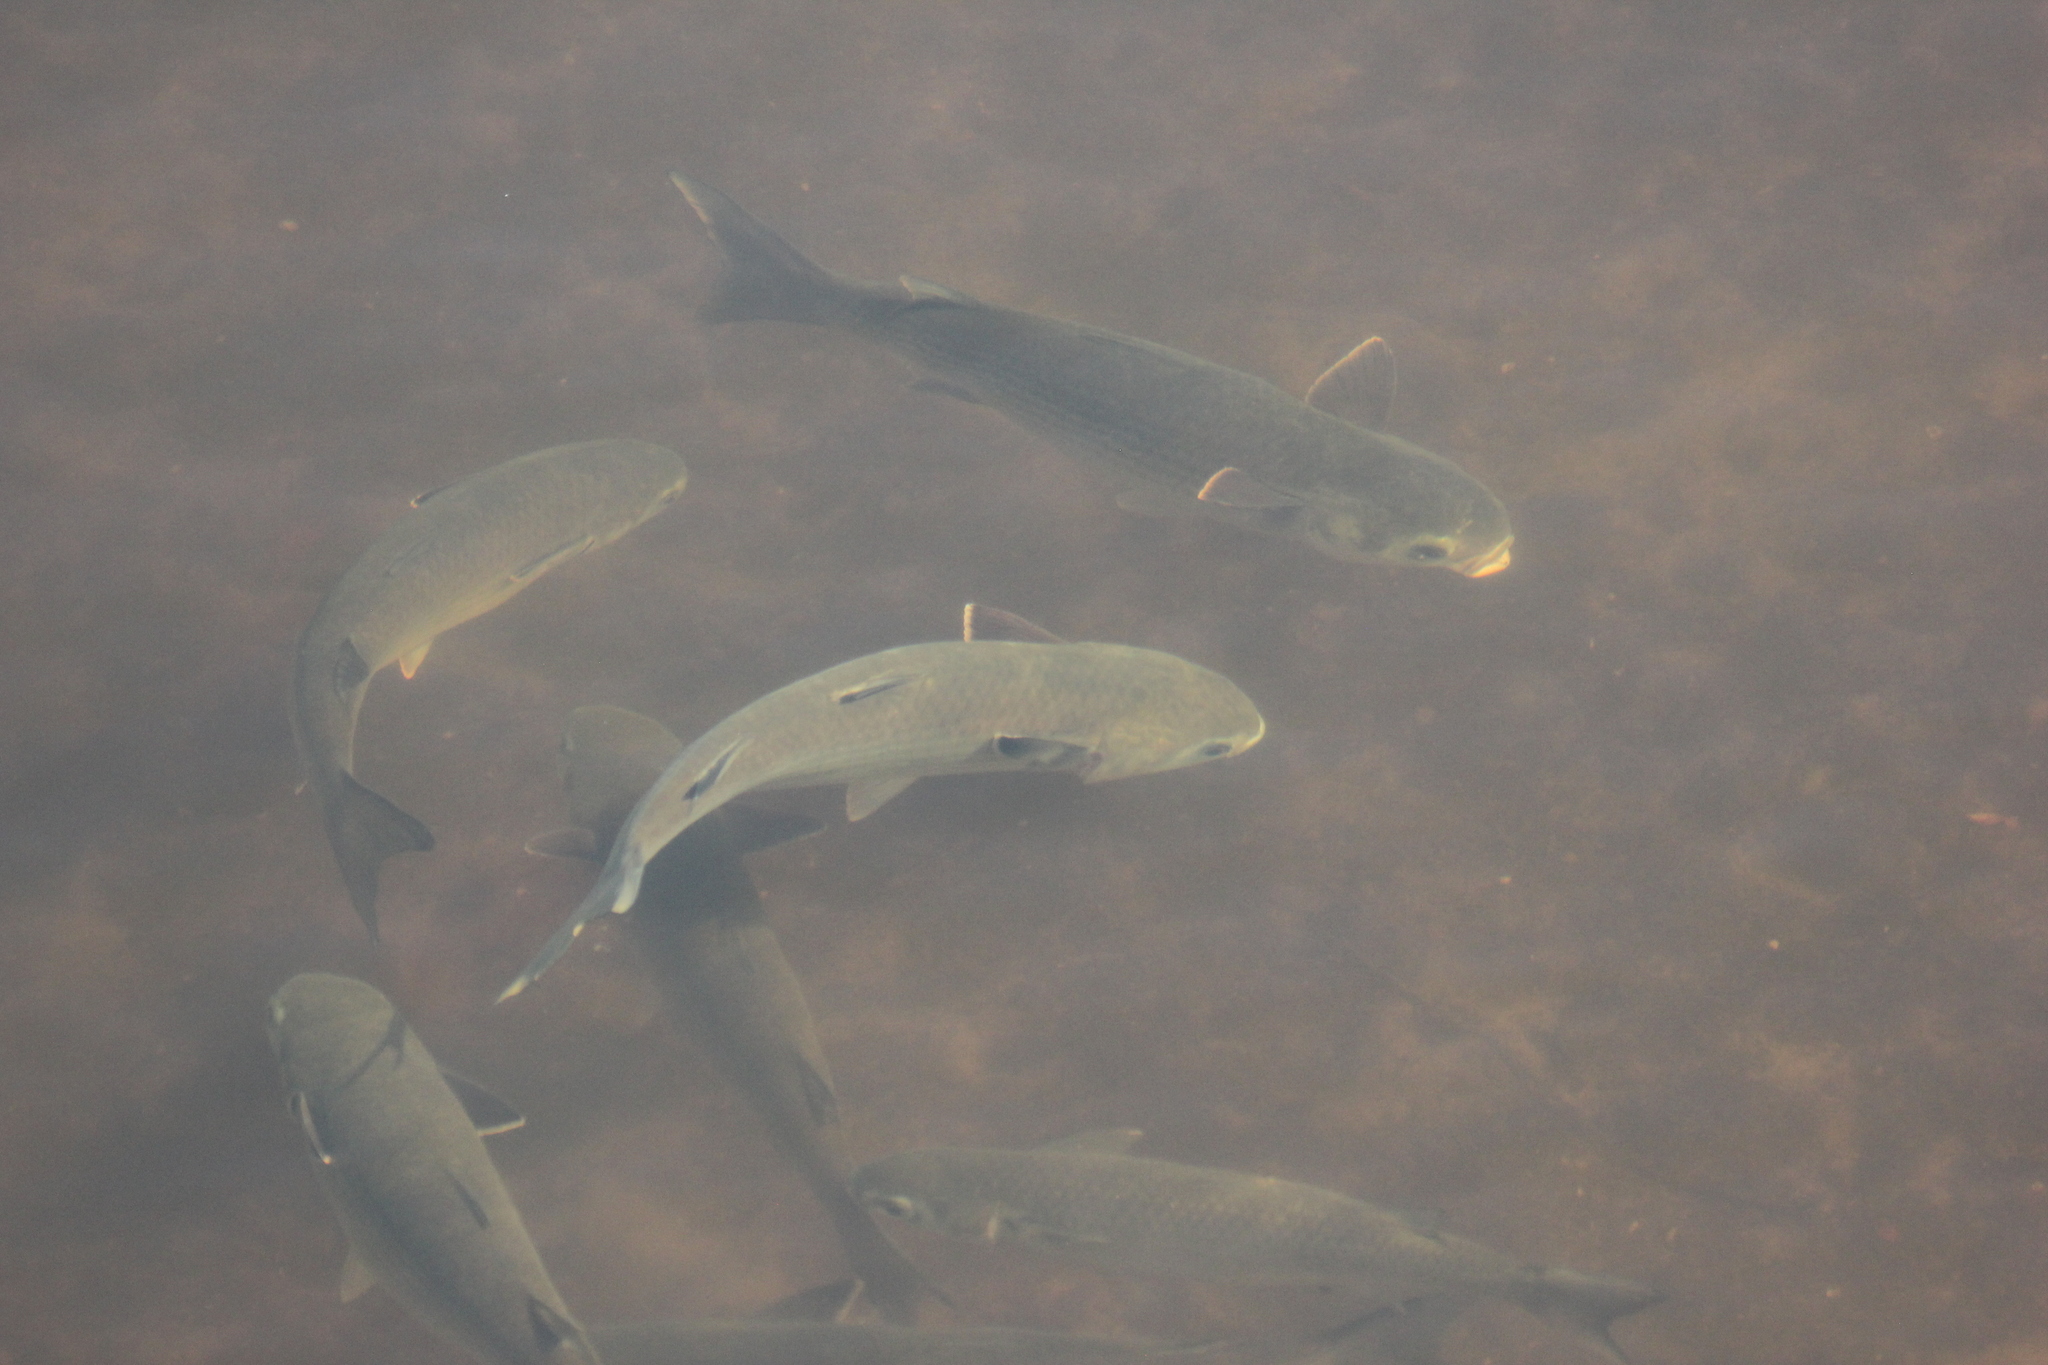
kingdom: Animalia
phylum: Chordata
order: Mugiliformes
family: Mugilidae
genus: Mugil
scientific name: Mugil cephalus
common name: Grey mullet
